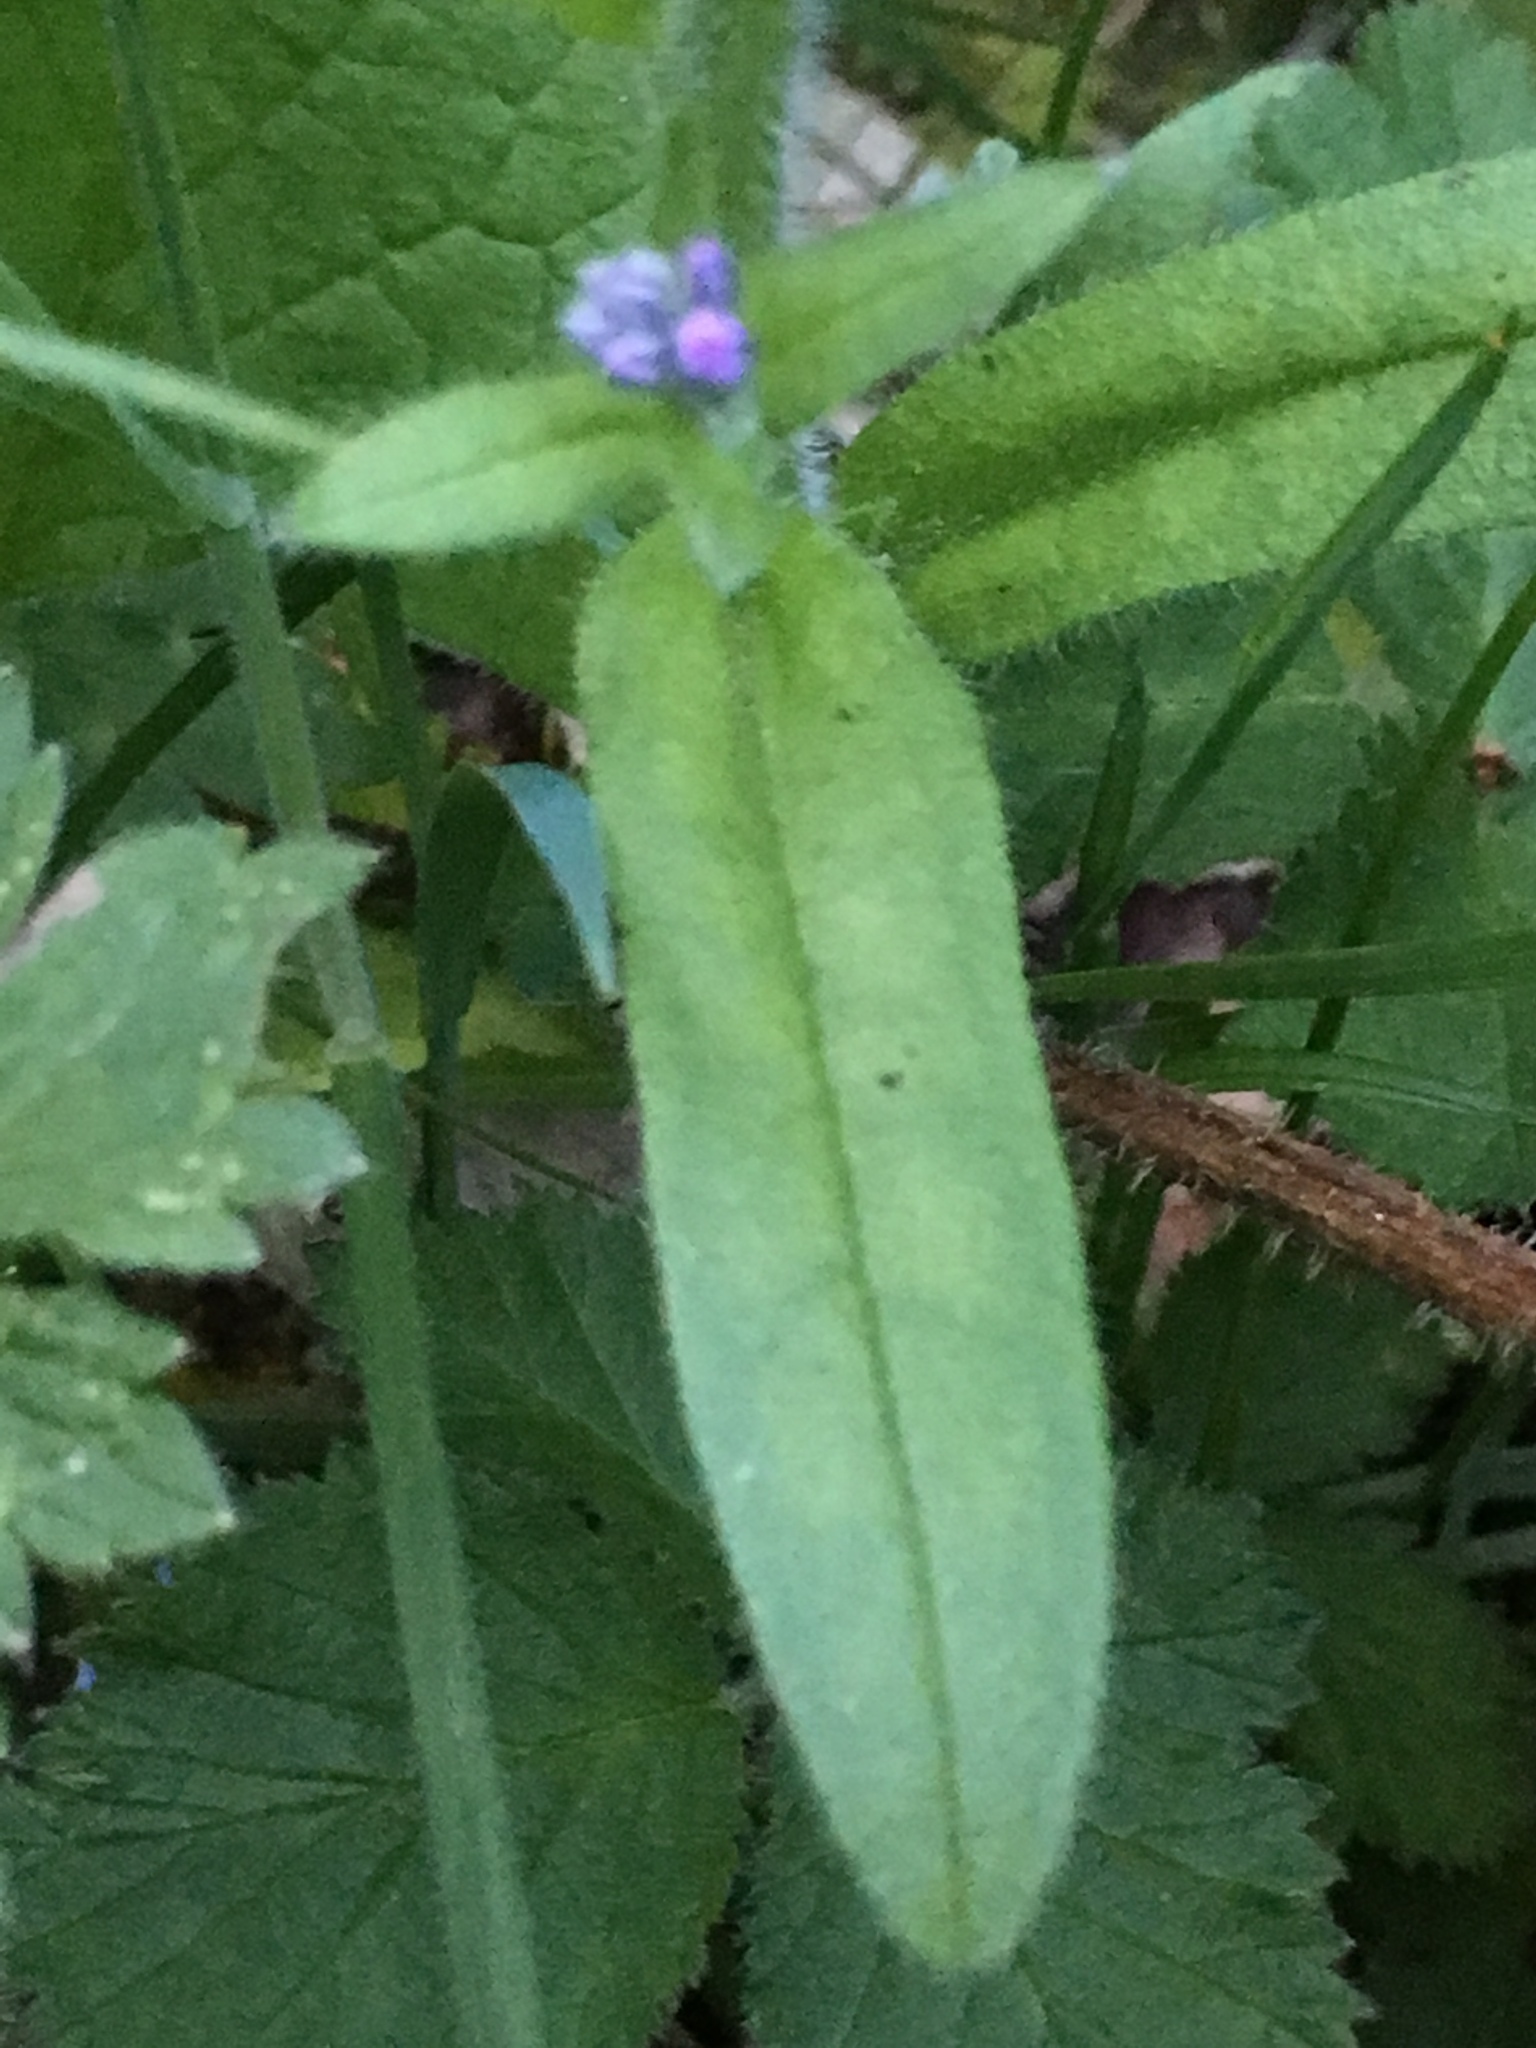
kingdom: Plantae
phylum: Tracheophyta
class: Magnoliopsida
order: Boraginales
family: Boraginaceae
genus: Myosotis
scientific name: Myosotis sylvatica
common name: Wood forget-me-not
